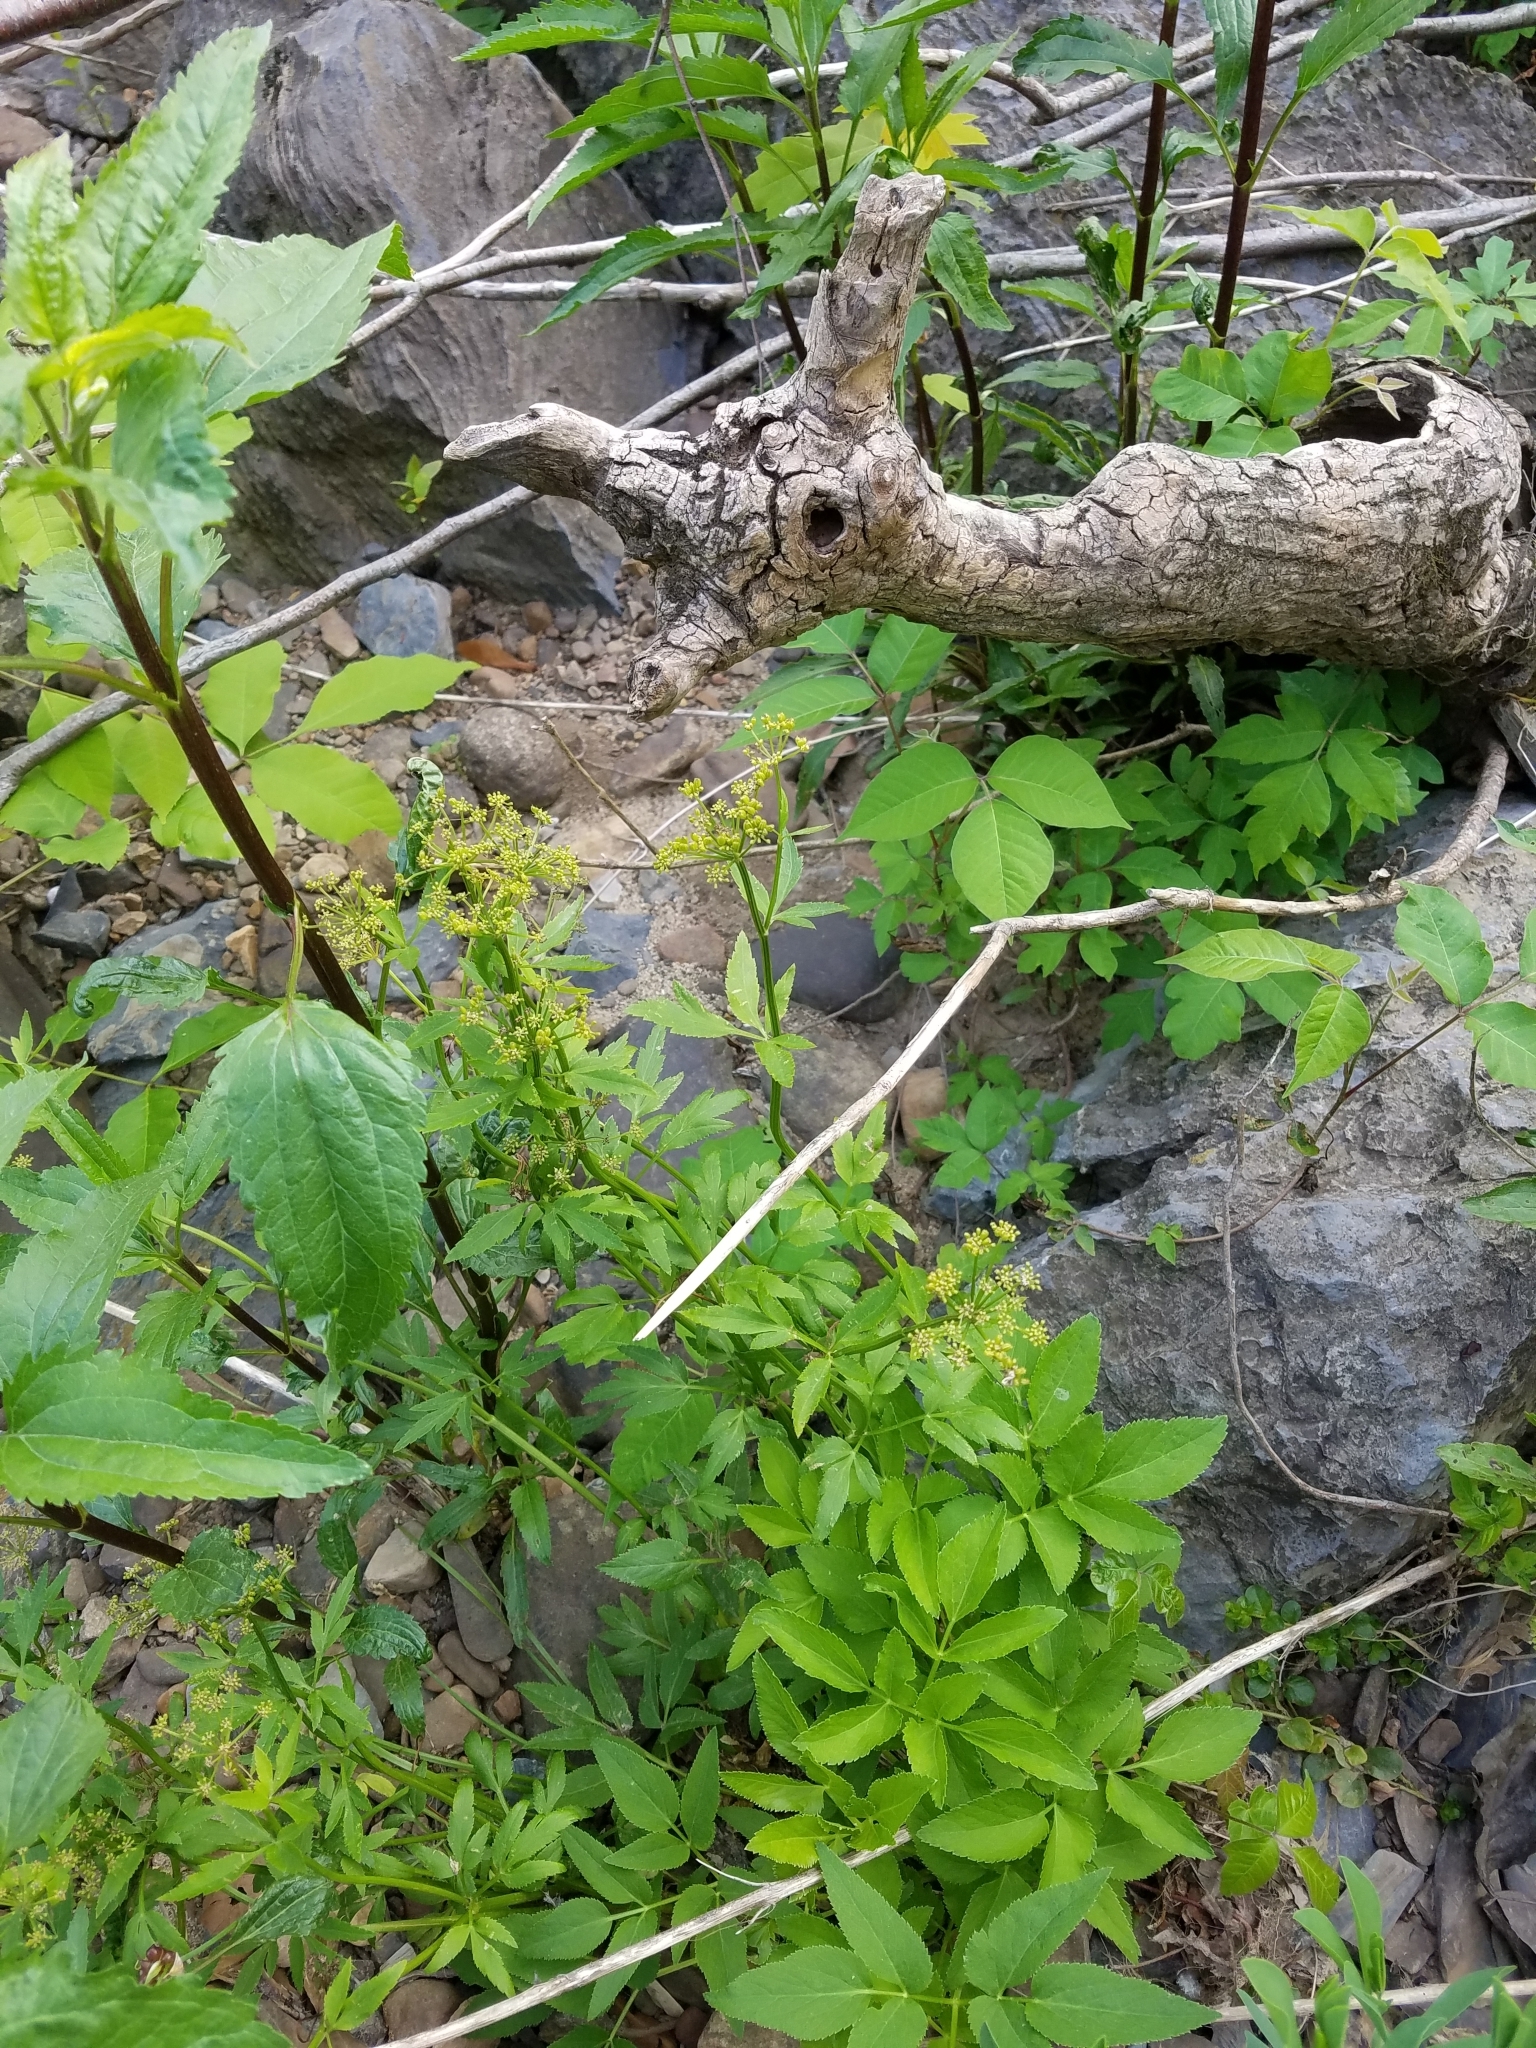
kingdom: Plantae
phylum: Tracheophyta
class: Magnoliopsida
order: Apiales
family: Apiaceae
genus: Zizia
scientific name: Zizia aurea
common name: Golden alexanders
